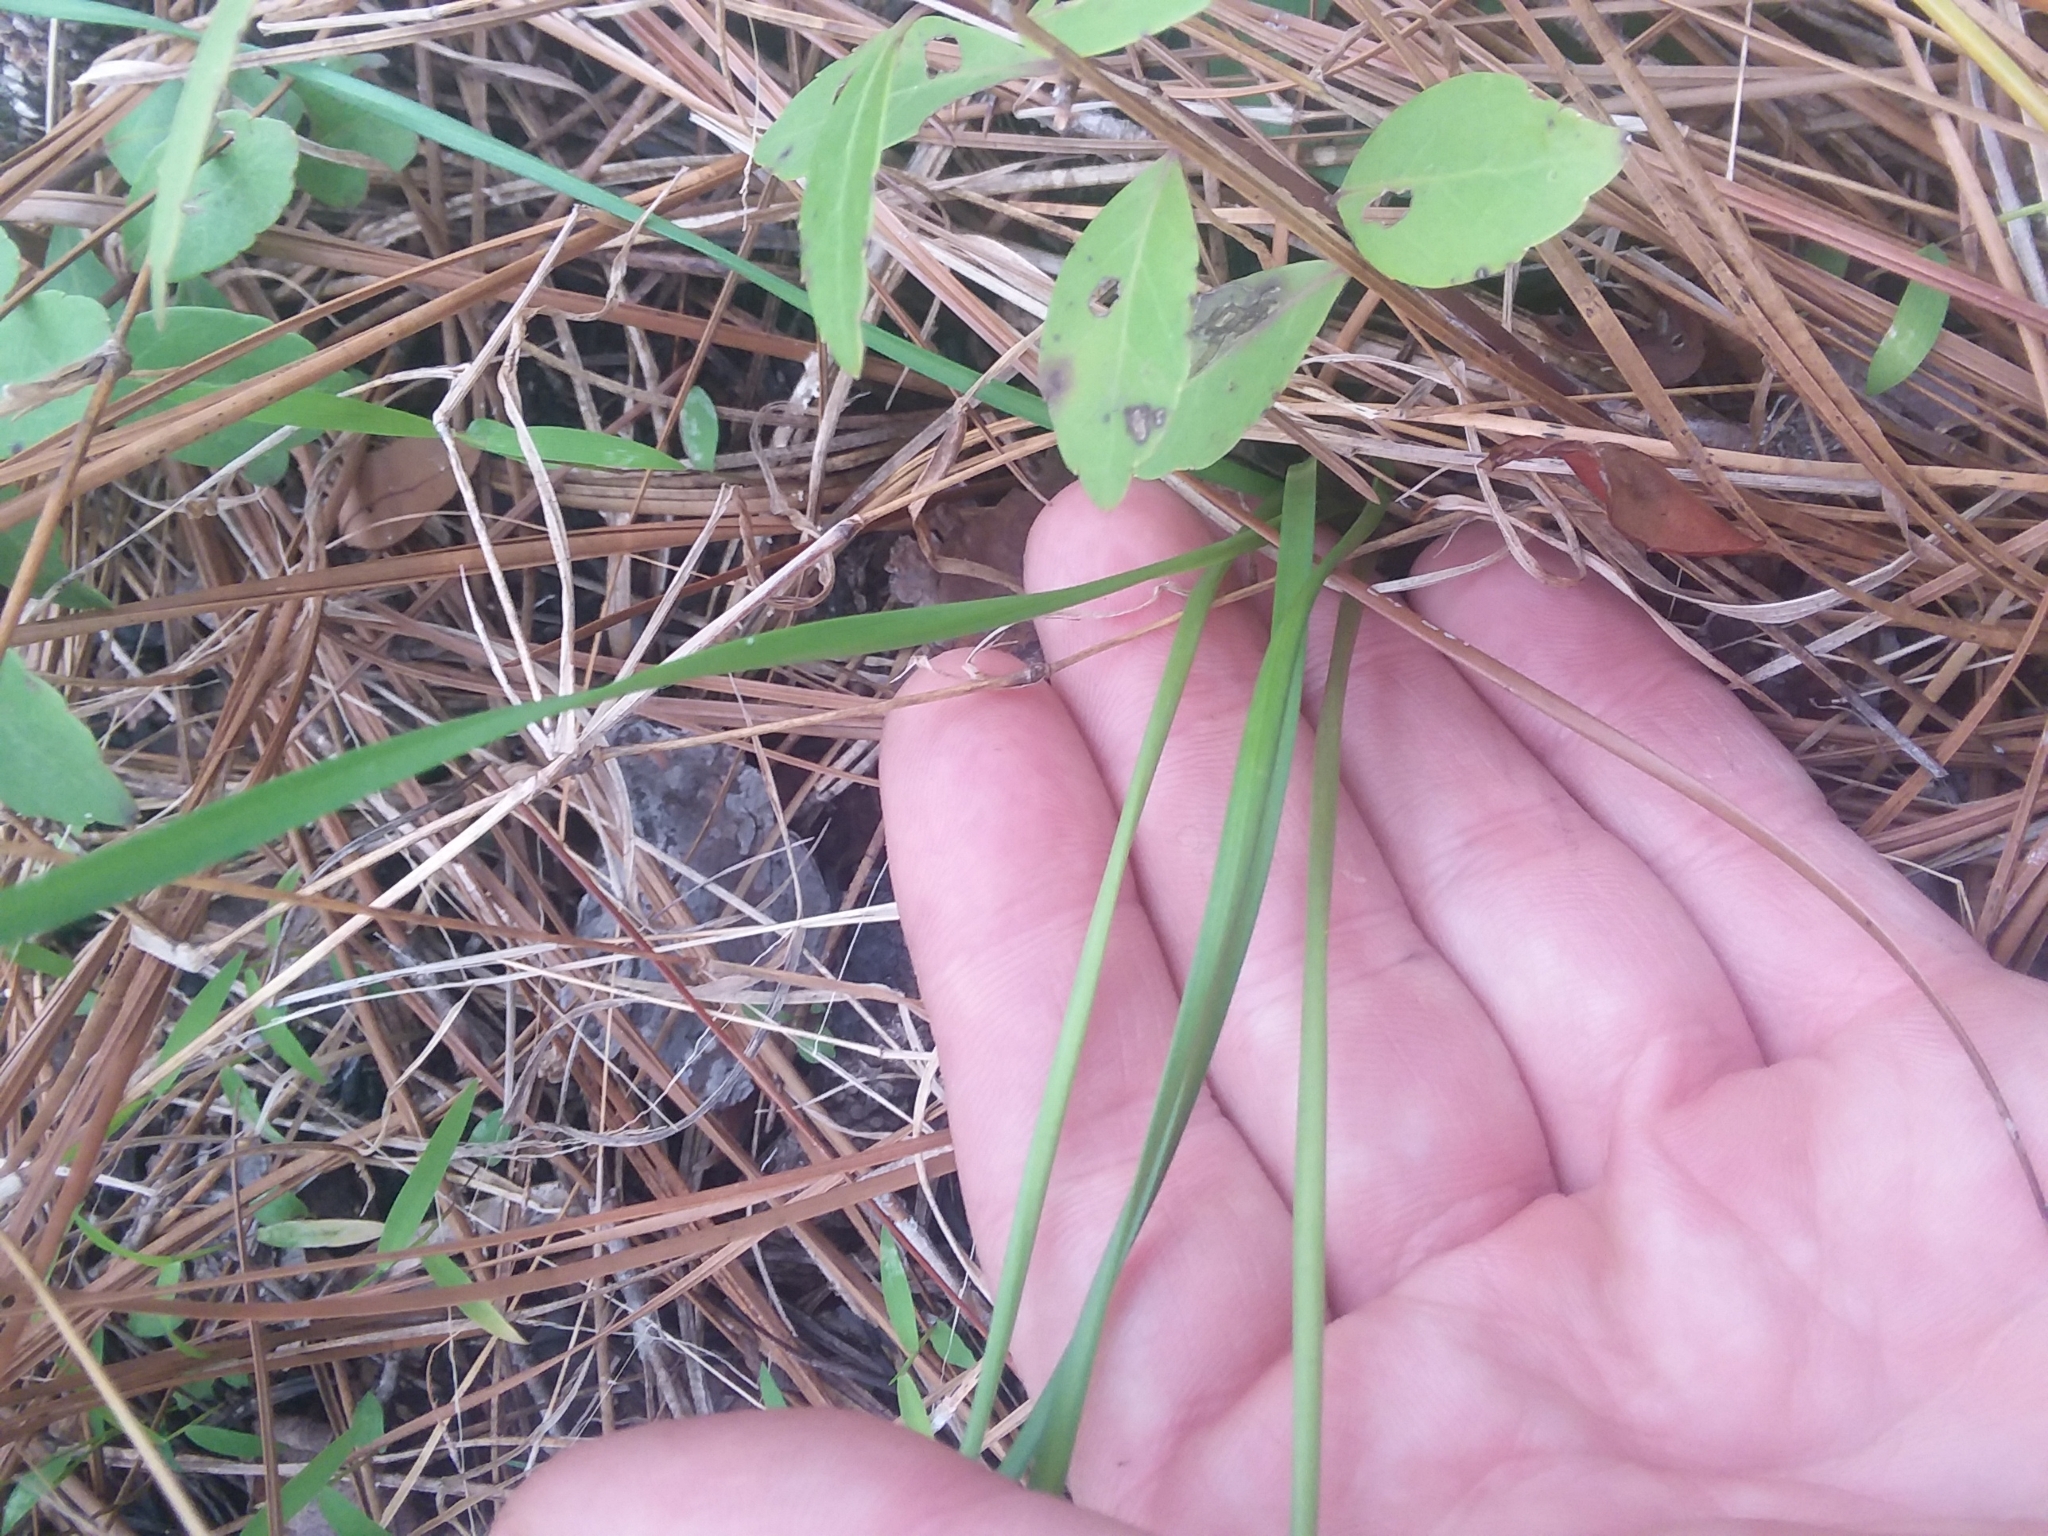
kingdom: Plantae
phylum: Tracheophyta
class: Liliopsida
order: Asparagales
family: Amaryllidaceae
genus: Nothoscordum
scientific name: Nothoscordum bivalve
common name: Crow-poison
